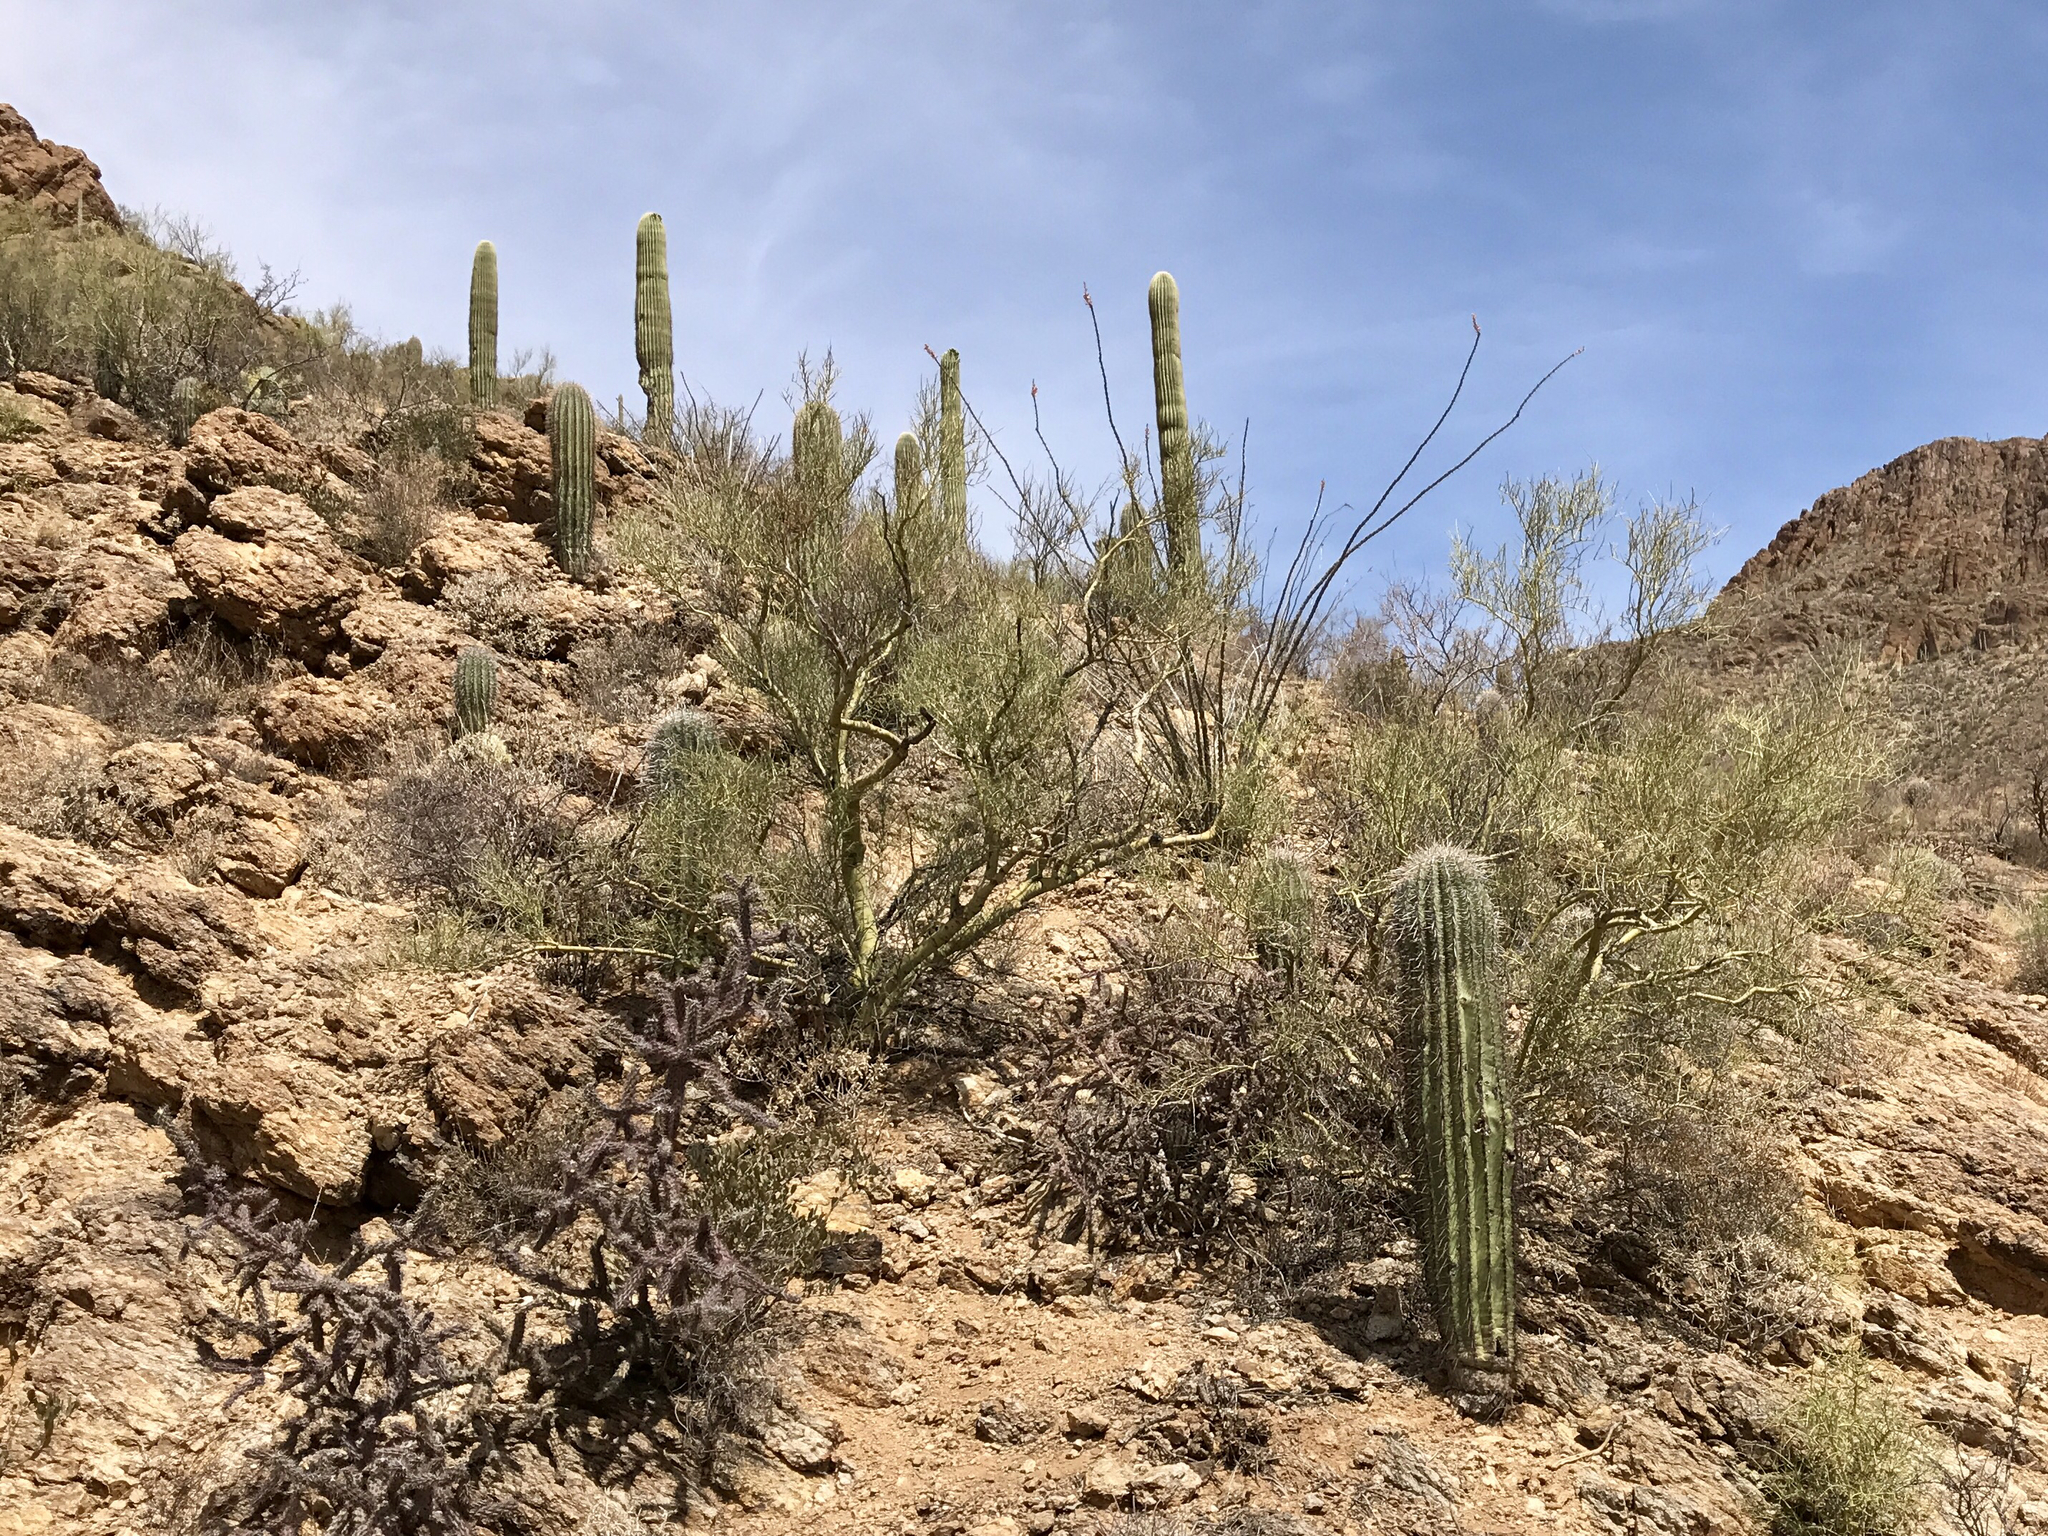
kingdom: Plantae
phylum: Tracheophyta
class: Magnoliopsida
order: Caryophyllales
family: Cactaceae
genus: Carnegiea
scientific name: Carnegiea gigantea
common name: Saguaro
